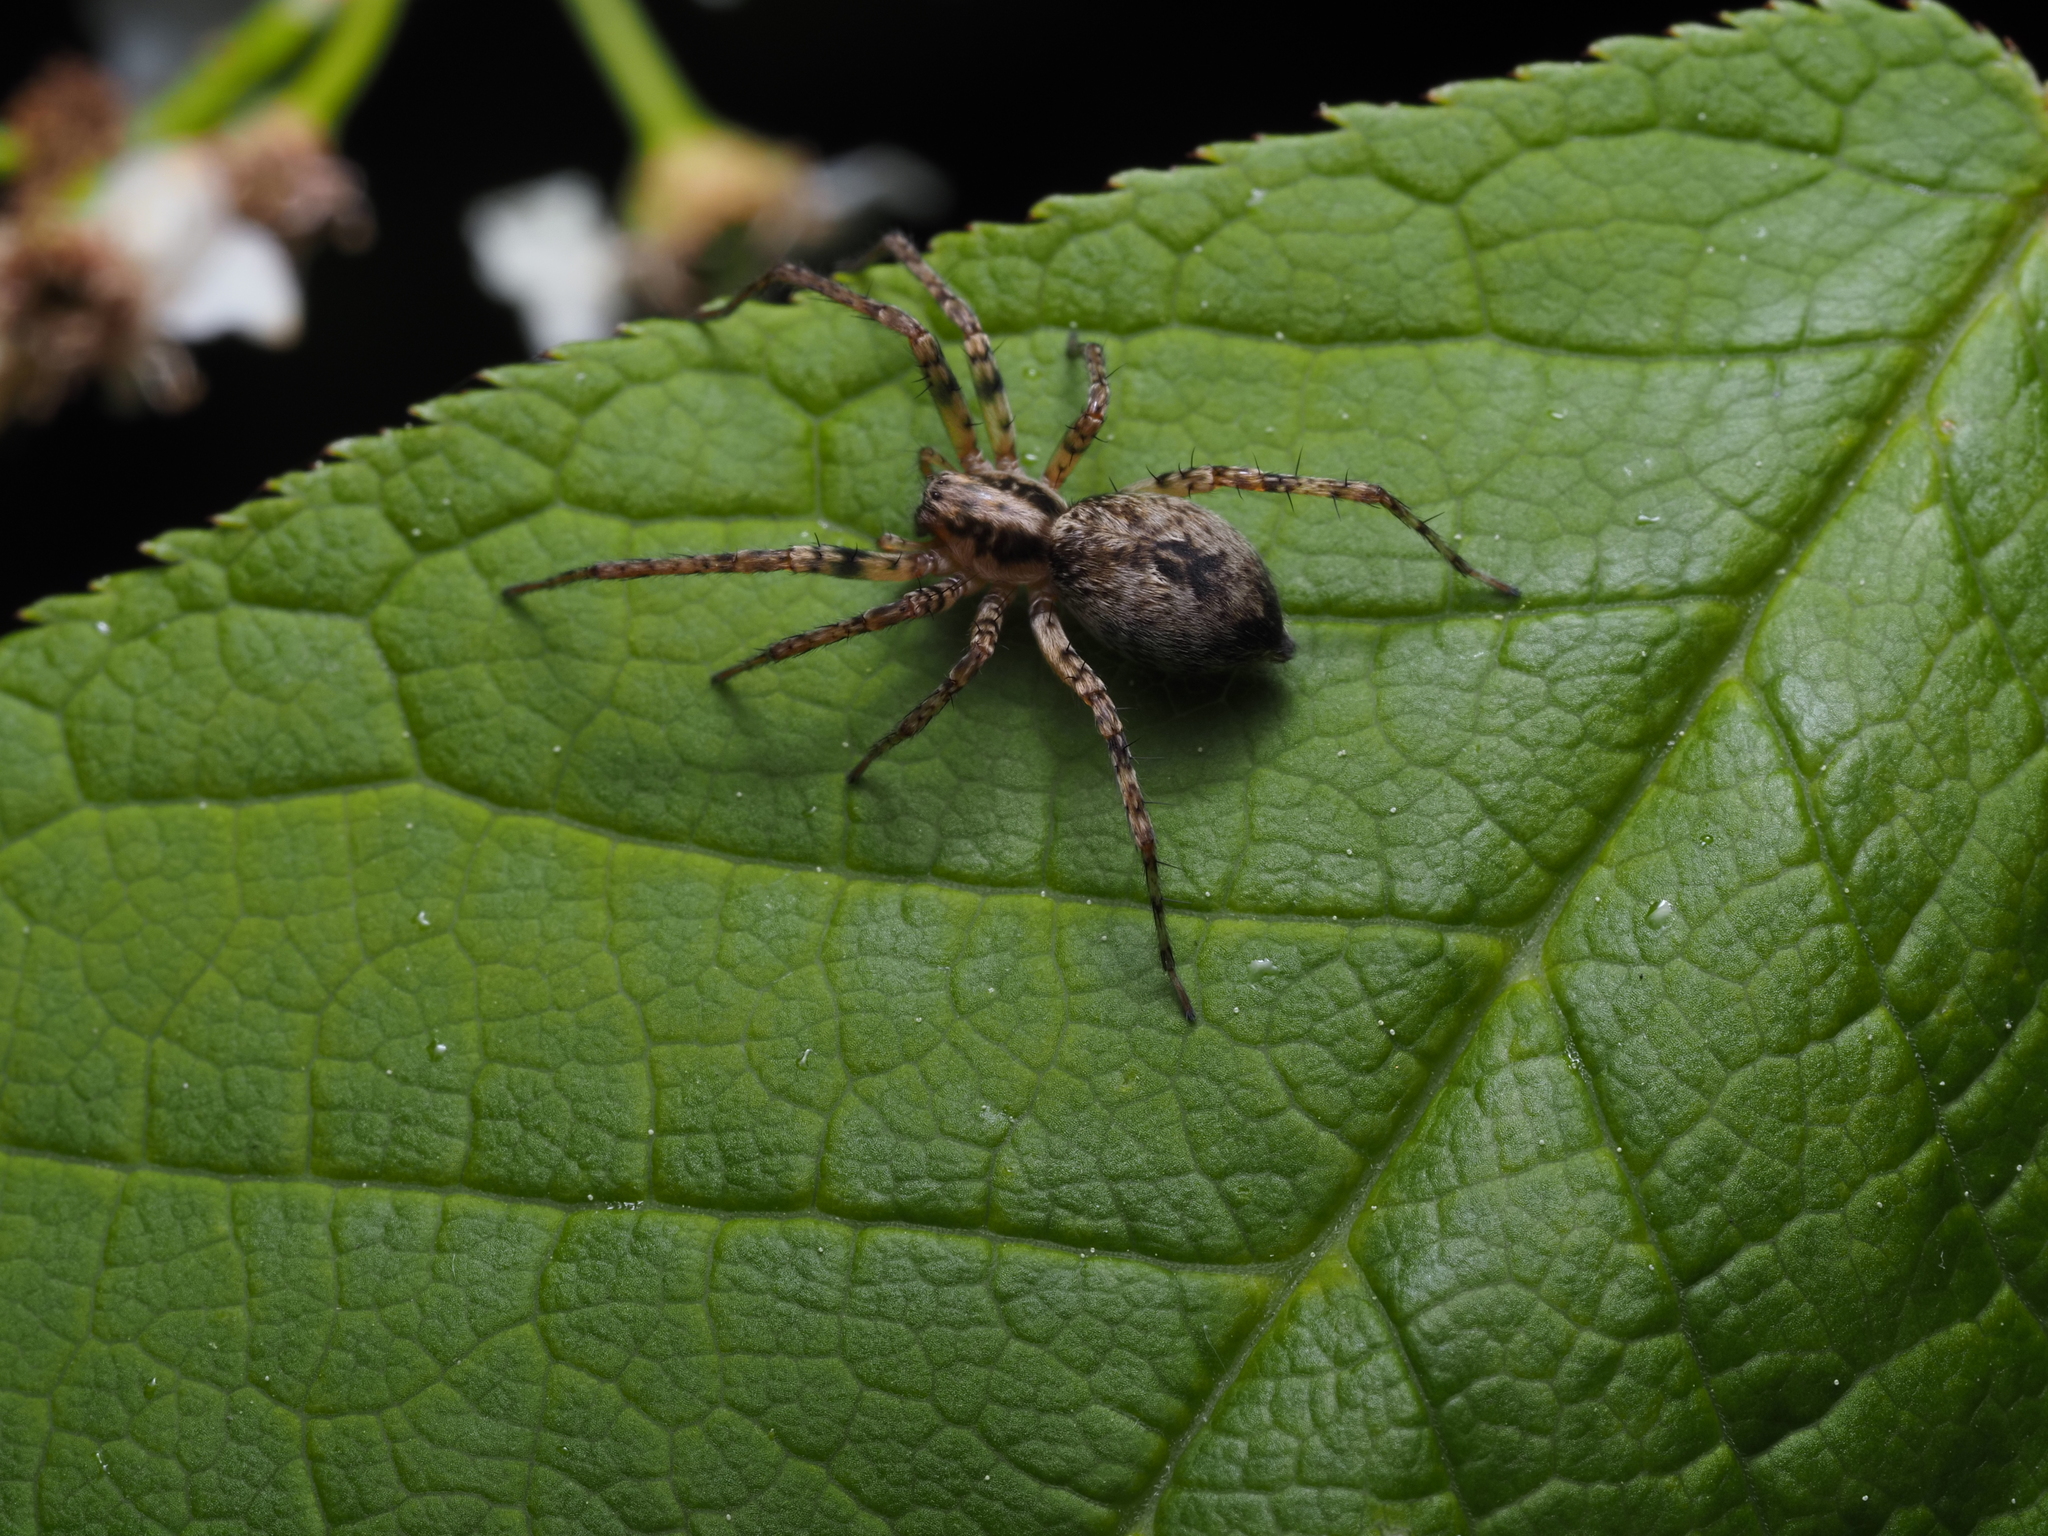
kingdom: Animalia
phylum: Arthropoda
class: Arachnida
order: Araneae
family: Anyphaenidae
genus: Anyphaena
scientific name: Anyphaena accentuata
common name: Buzzing spider
